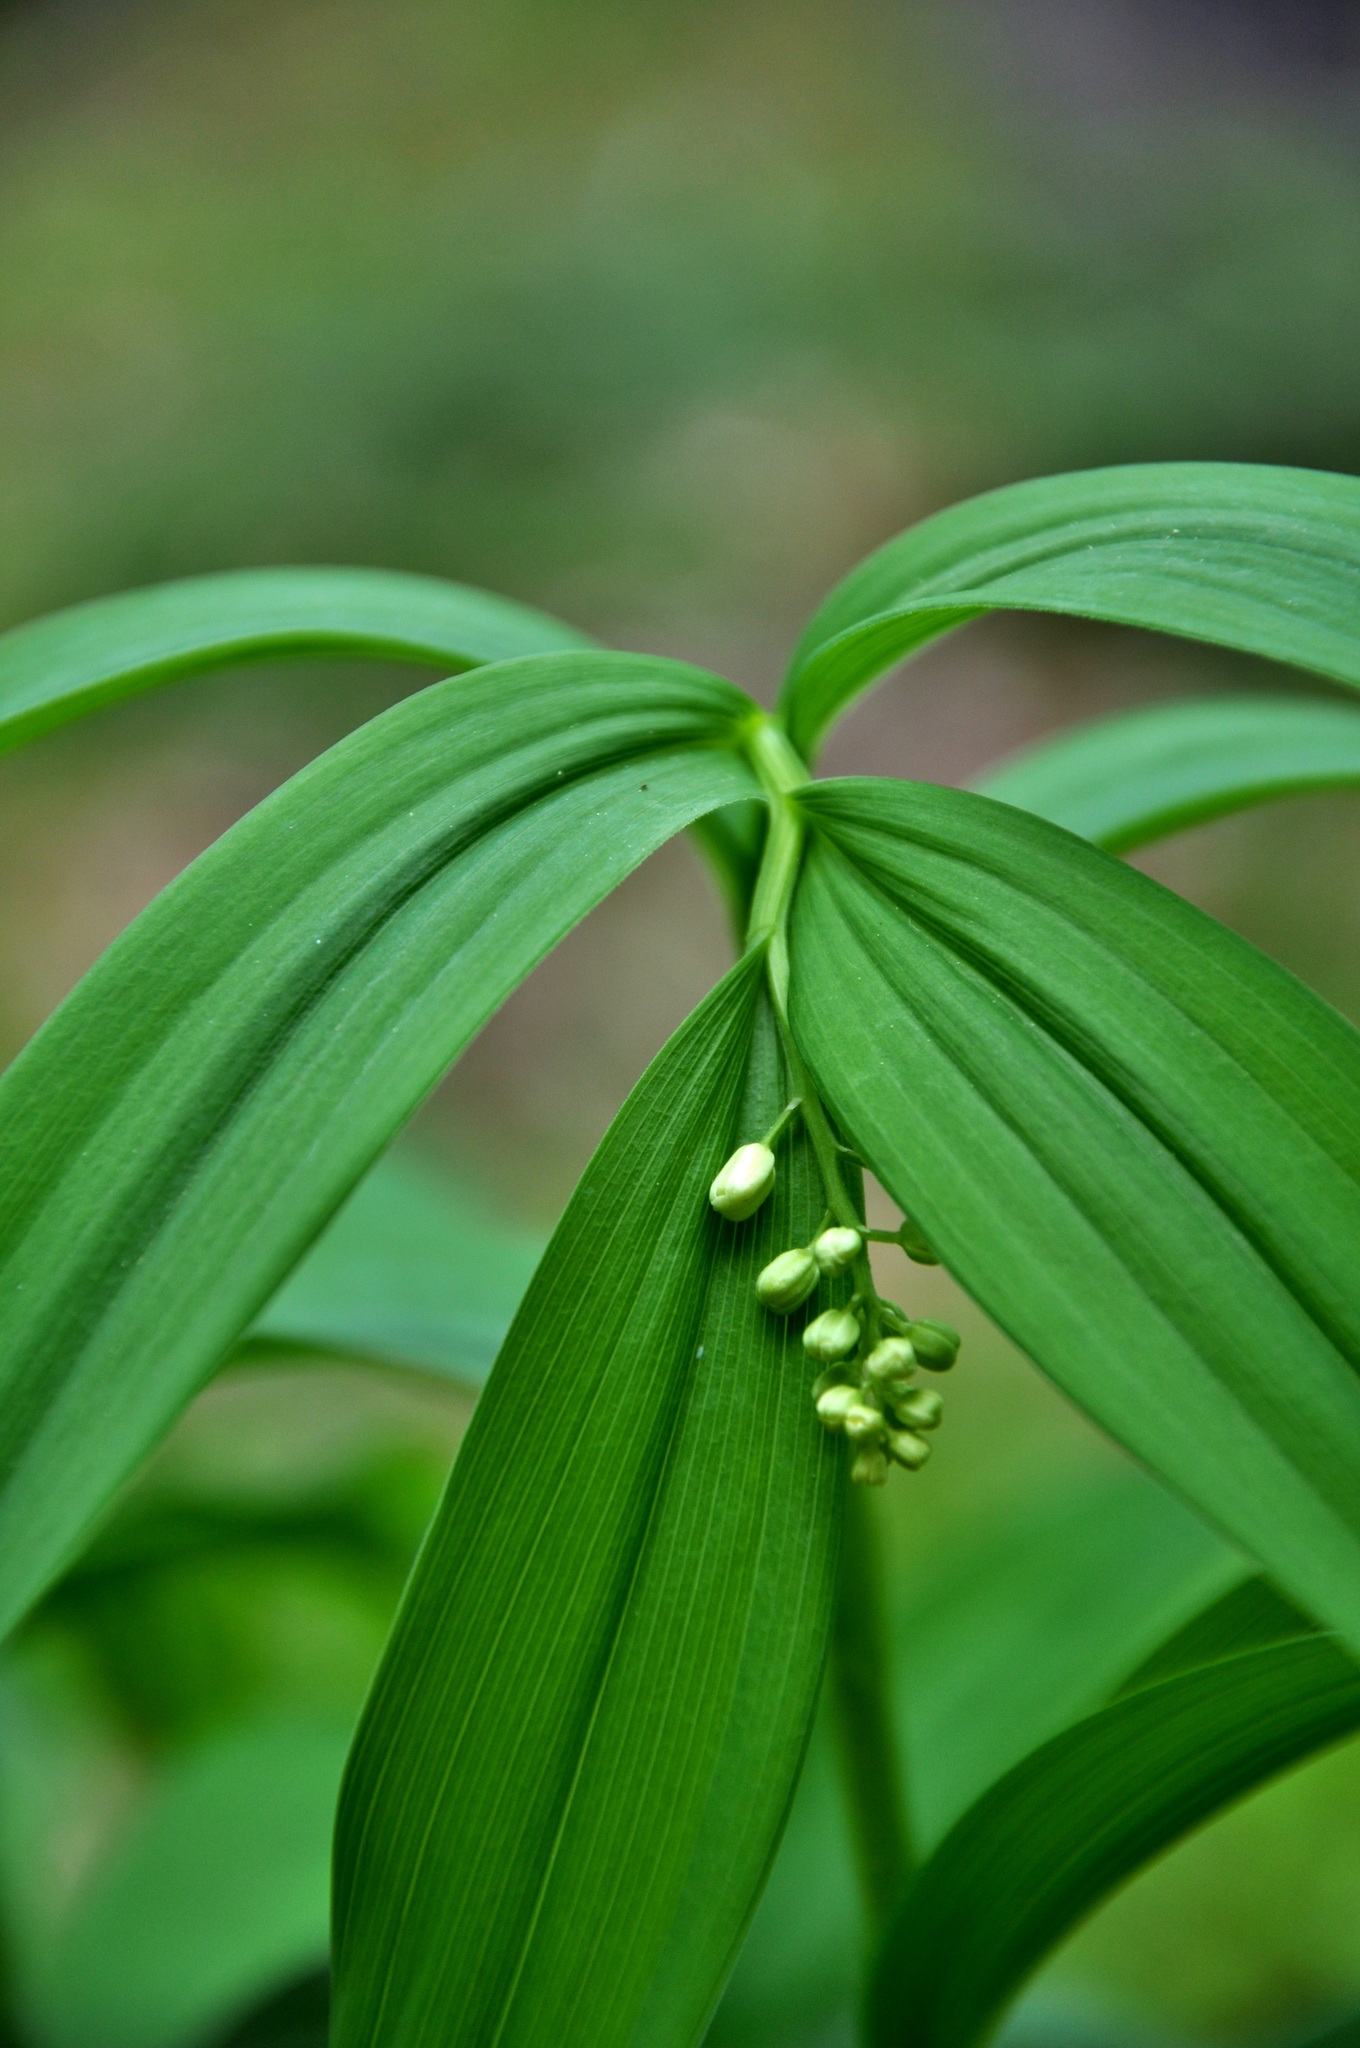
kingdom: Plantae
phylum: Tracheophyta
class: Liliopsida
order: Asparagales
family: Asparagaceae
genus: Maianthemum
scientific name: Maianthemum stellatum
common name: Little false solomon's seal
